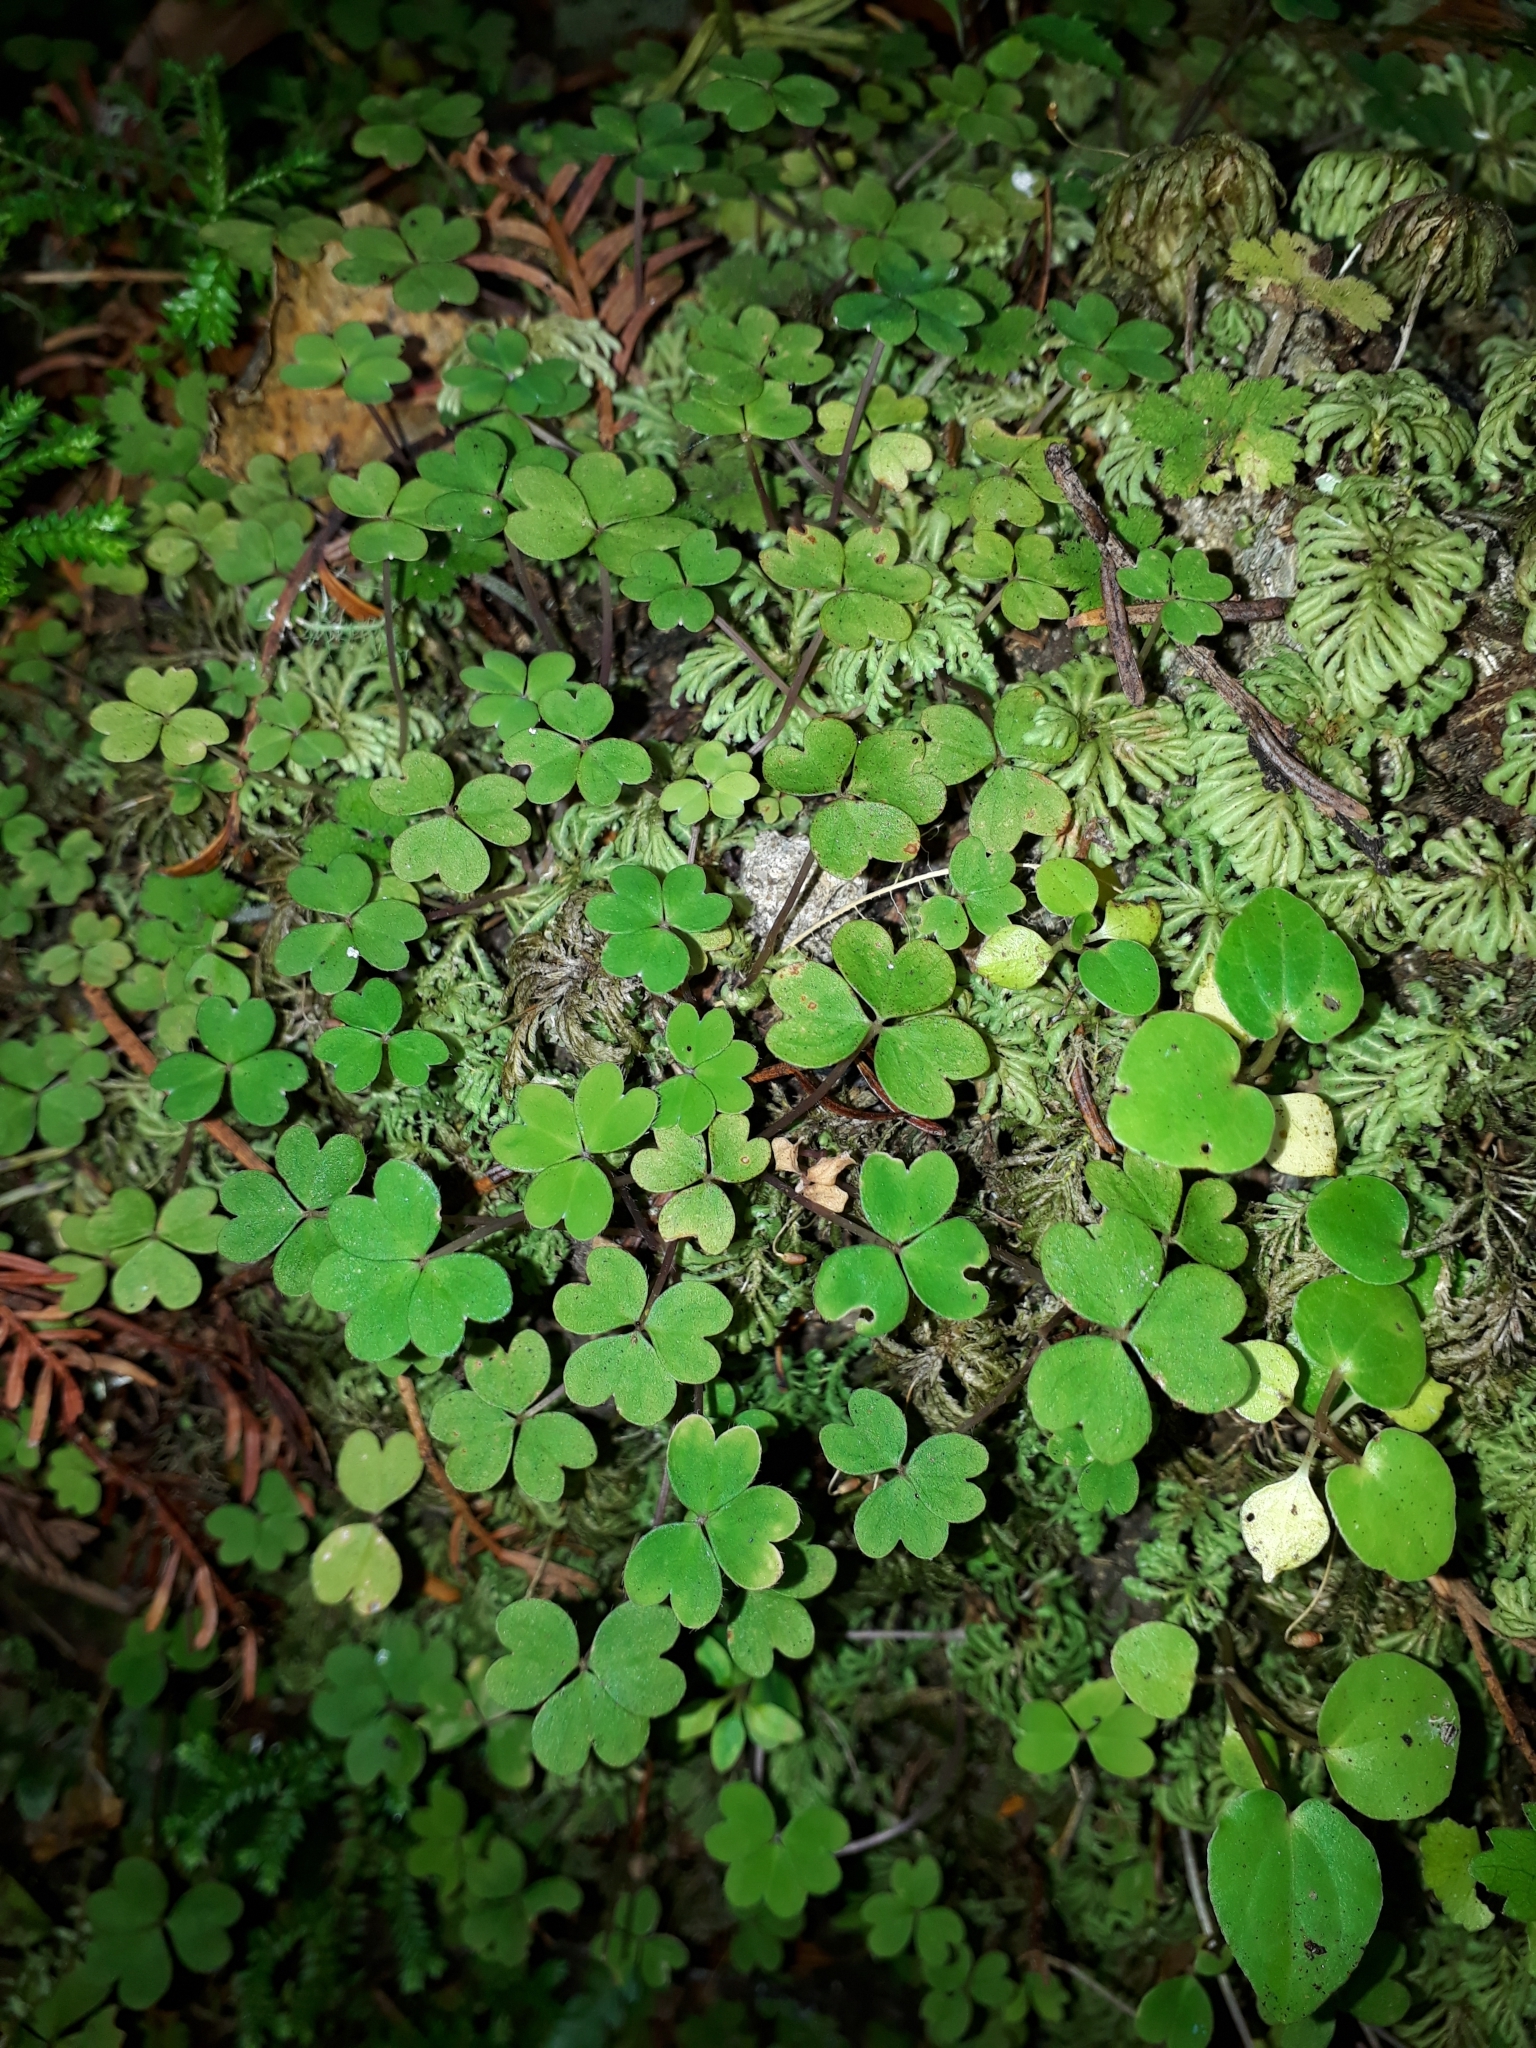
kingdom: Plantae
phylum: Tracheophyta
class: Magnoliopsida
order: Oxalidales
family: Oxalidaceae
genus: Oxalis
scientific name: Oxalis magellanica
